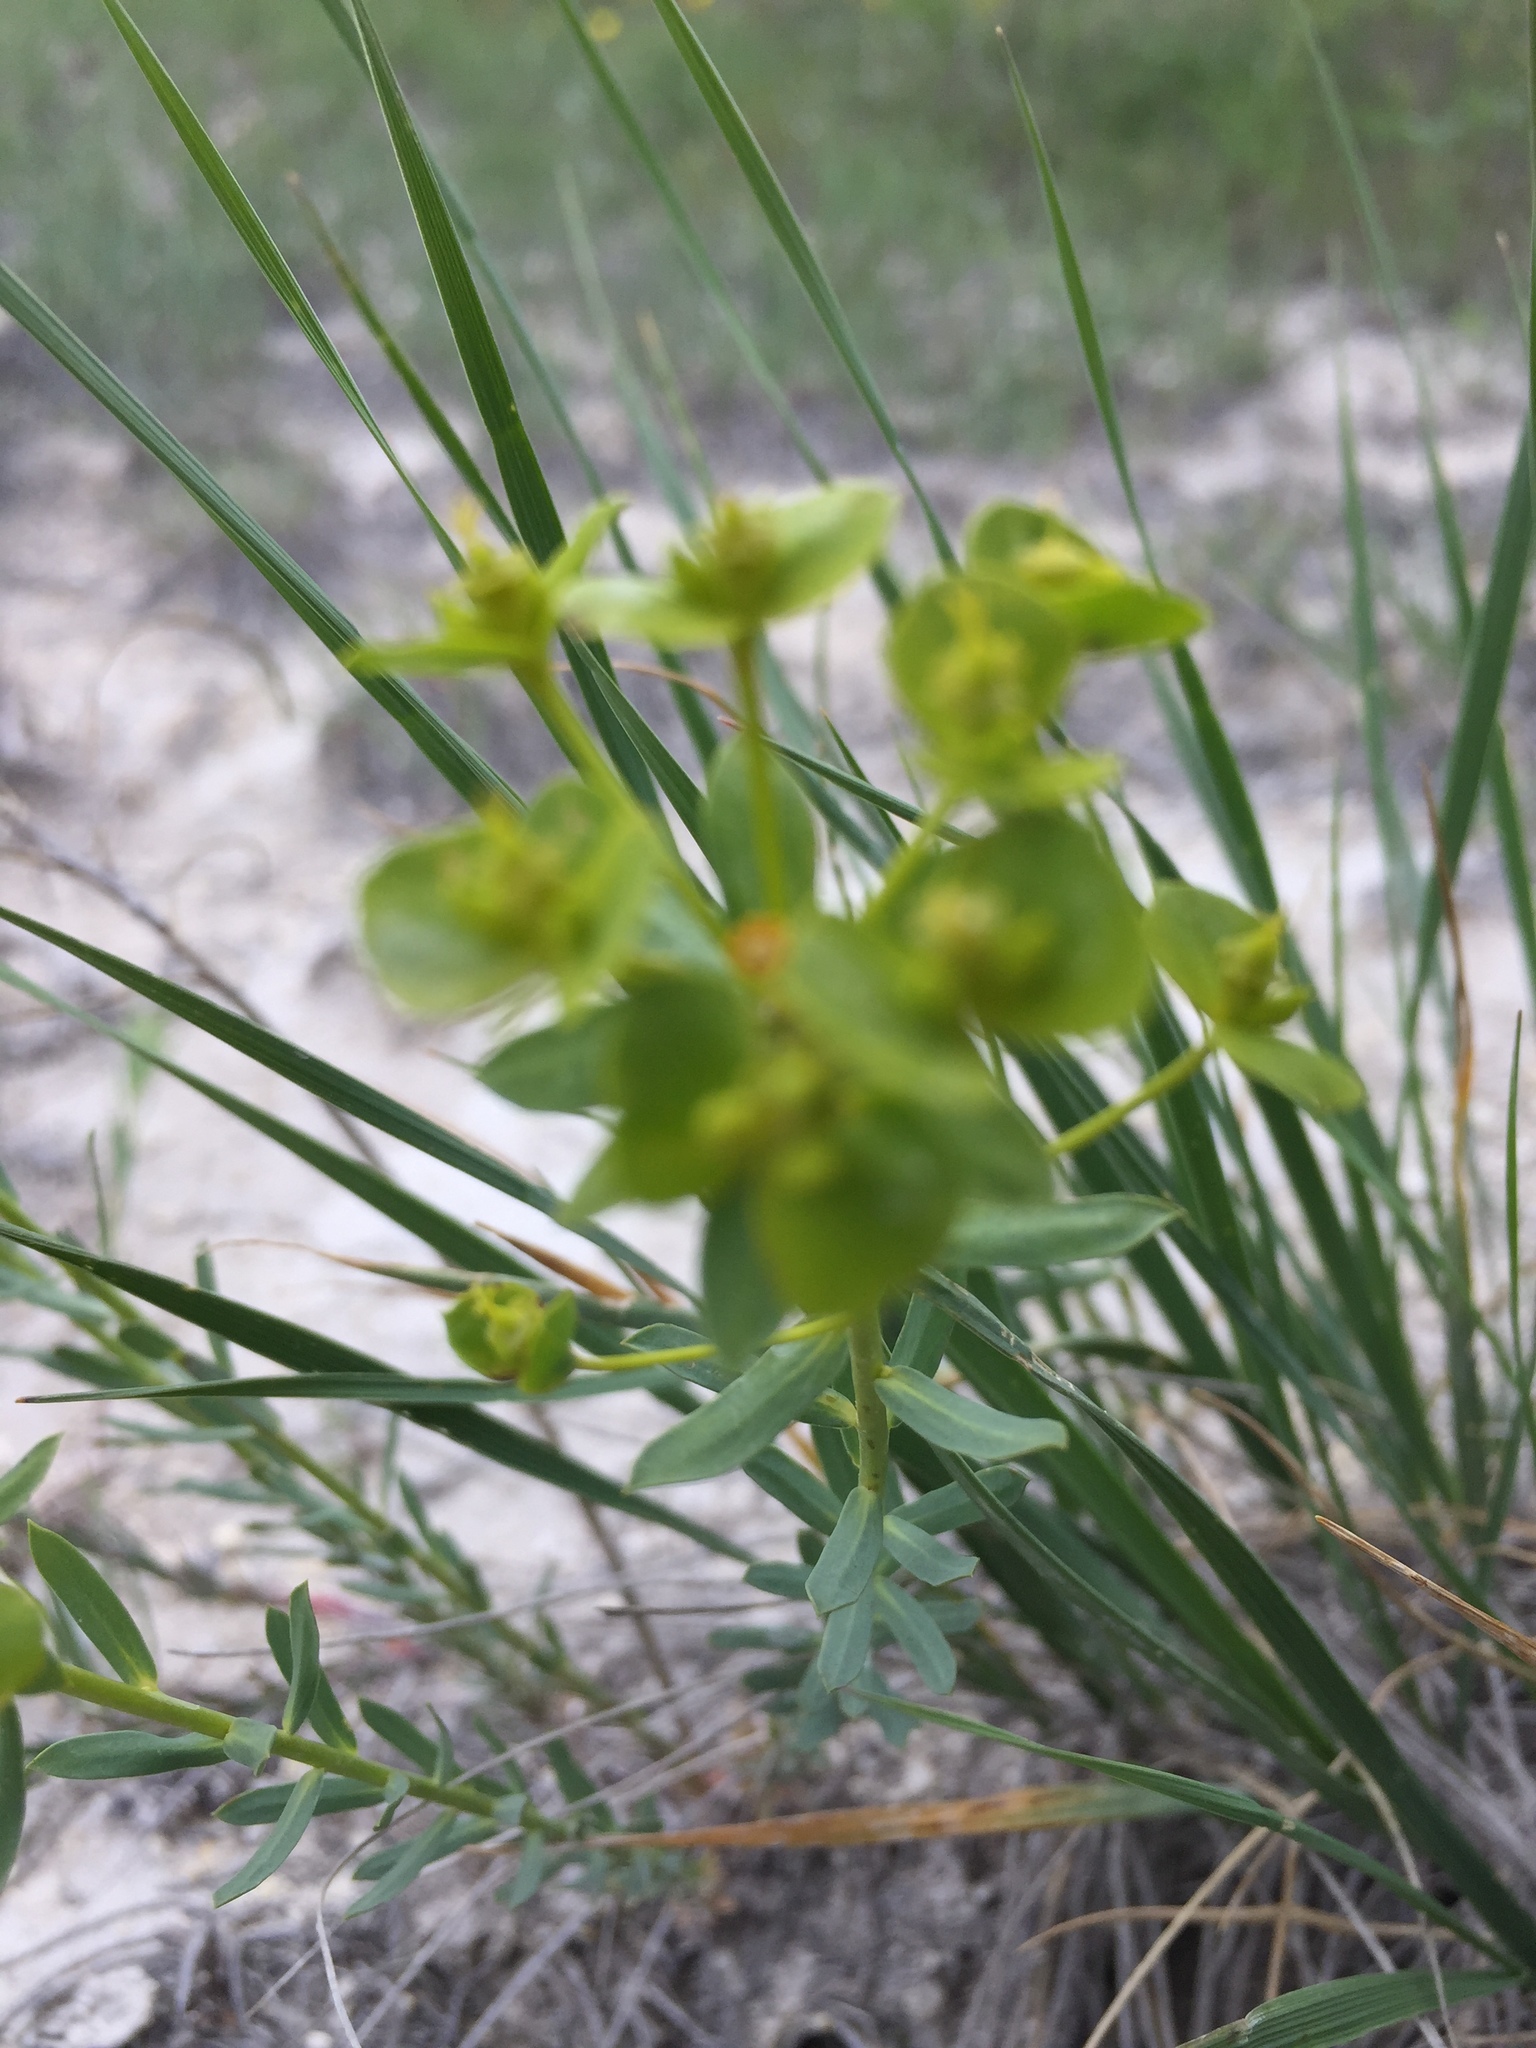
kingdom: Plantae
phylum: Tracheophyta
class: Magnoliopsida
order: Malpighiales
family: Euphorbiaceae
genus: Euphorbia
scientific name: Euphorbia seguieriana
